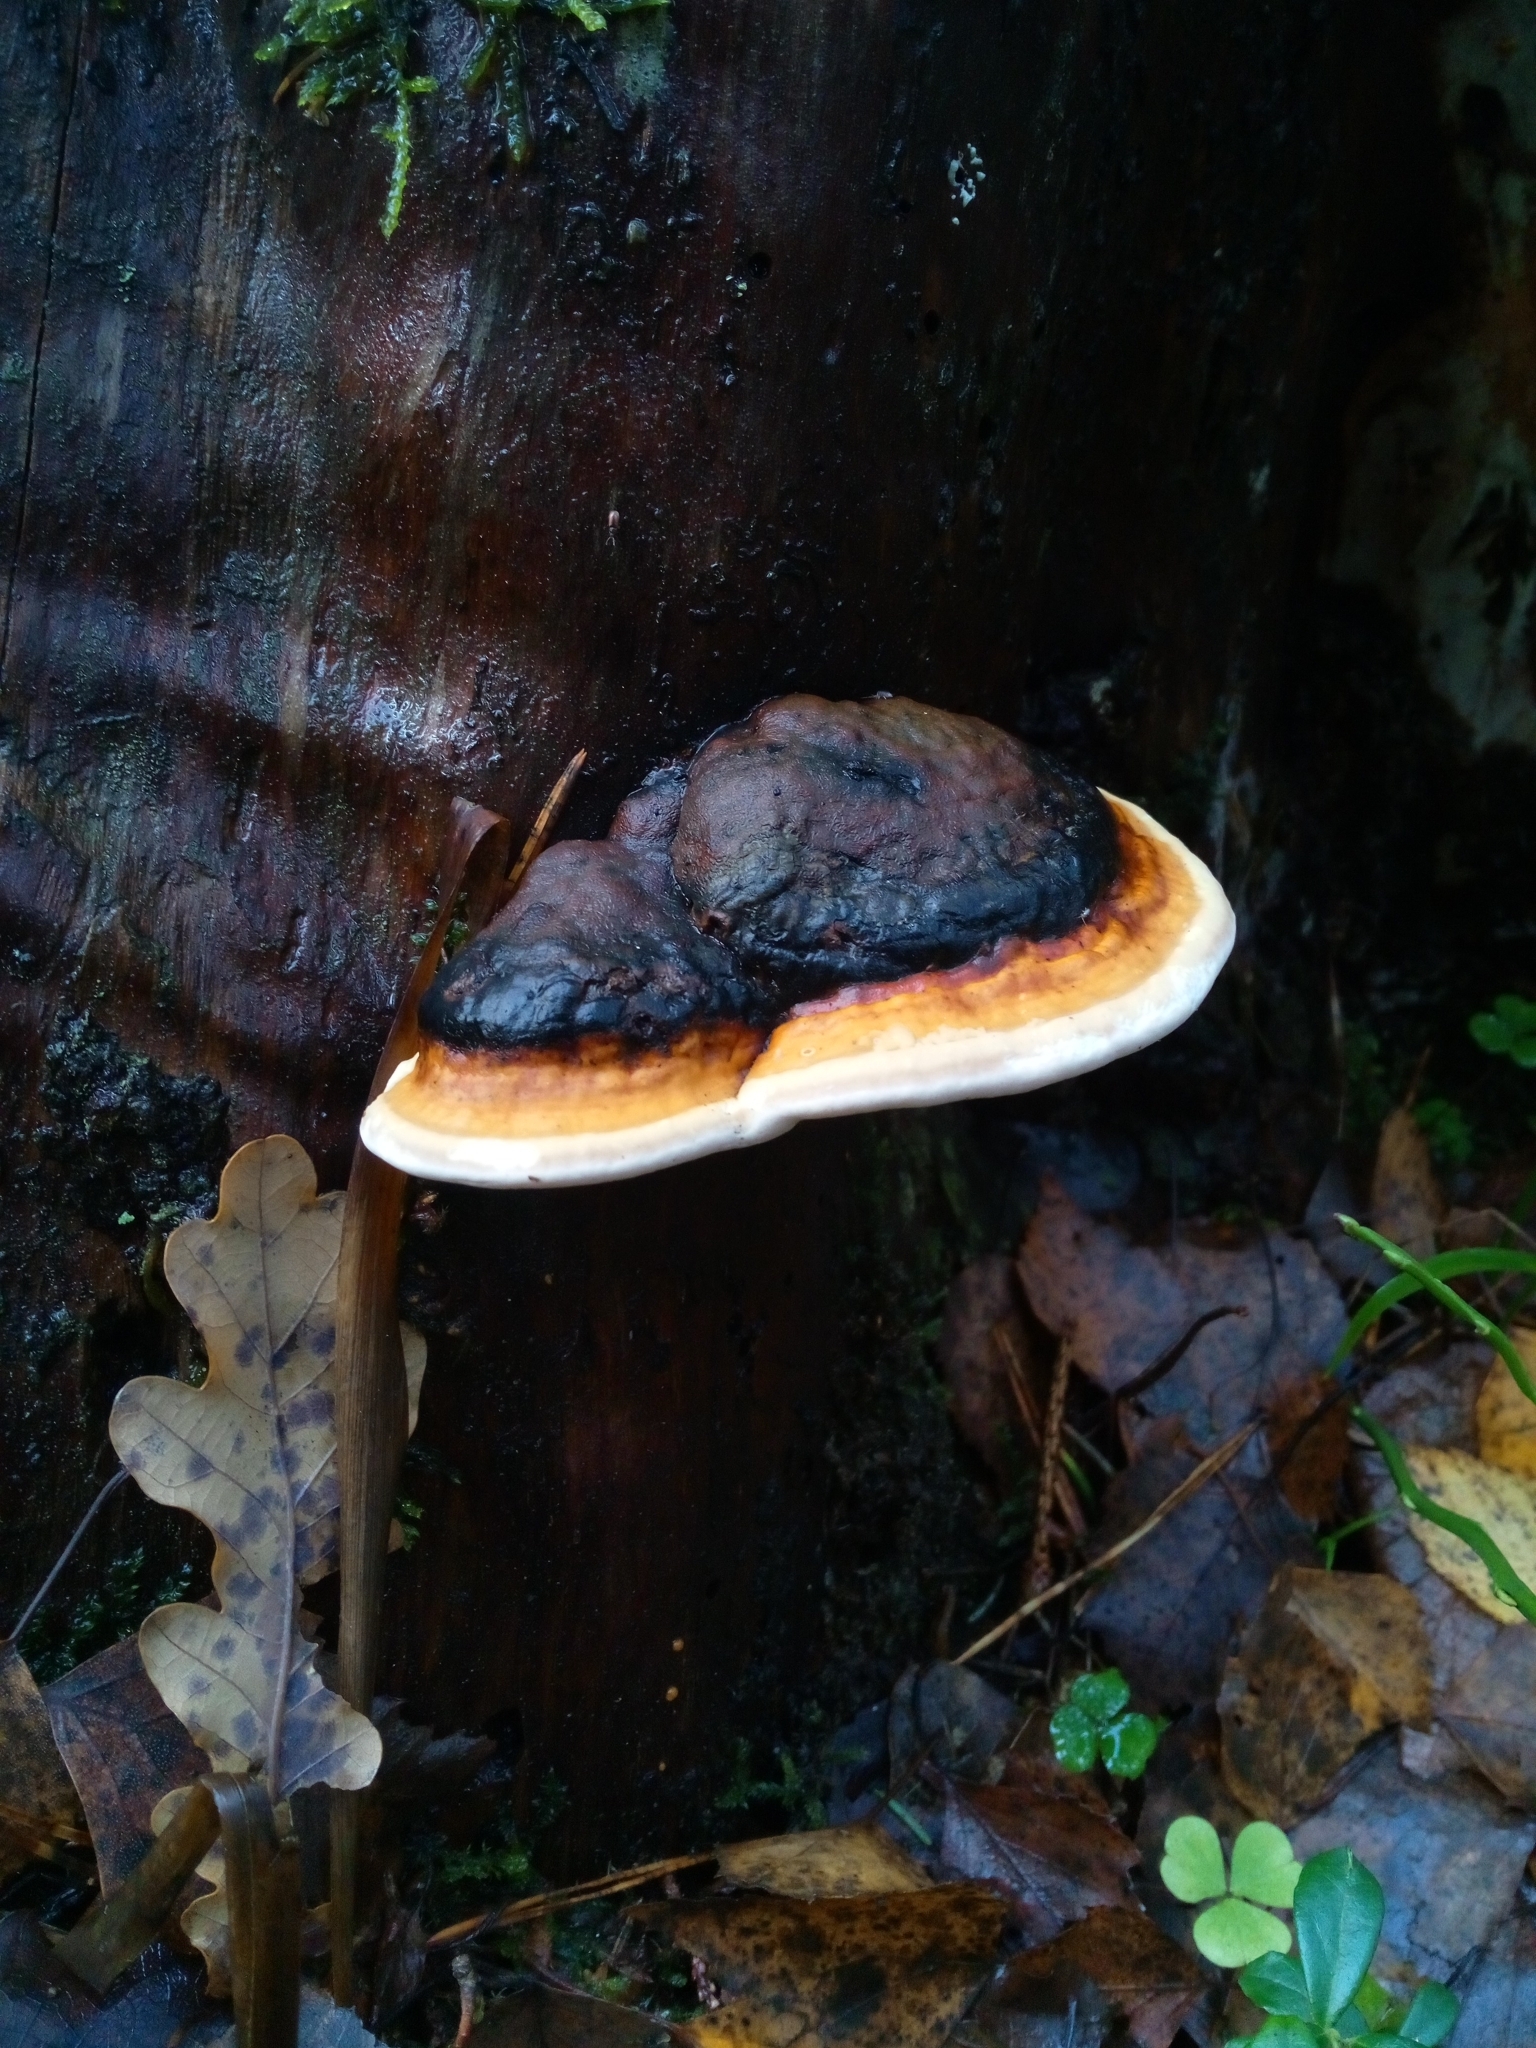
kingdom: Fungi
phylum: Basidiomycota
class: Agaricomycetes
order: Polyporales
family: Fomitopsidaceae
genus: Fomitopsis
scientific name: Fomitopsis pinicola
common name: Red-belted bracket
